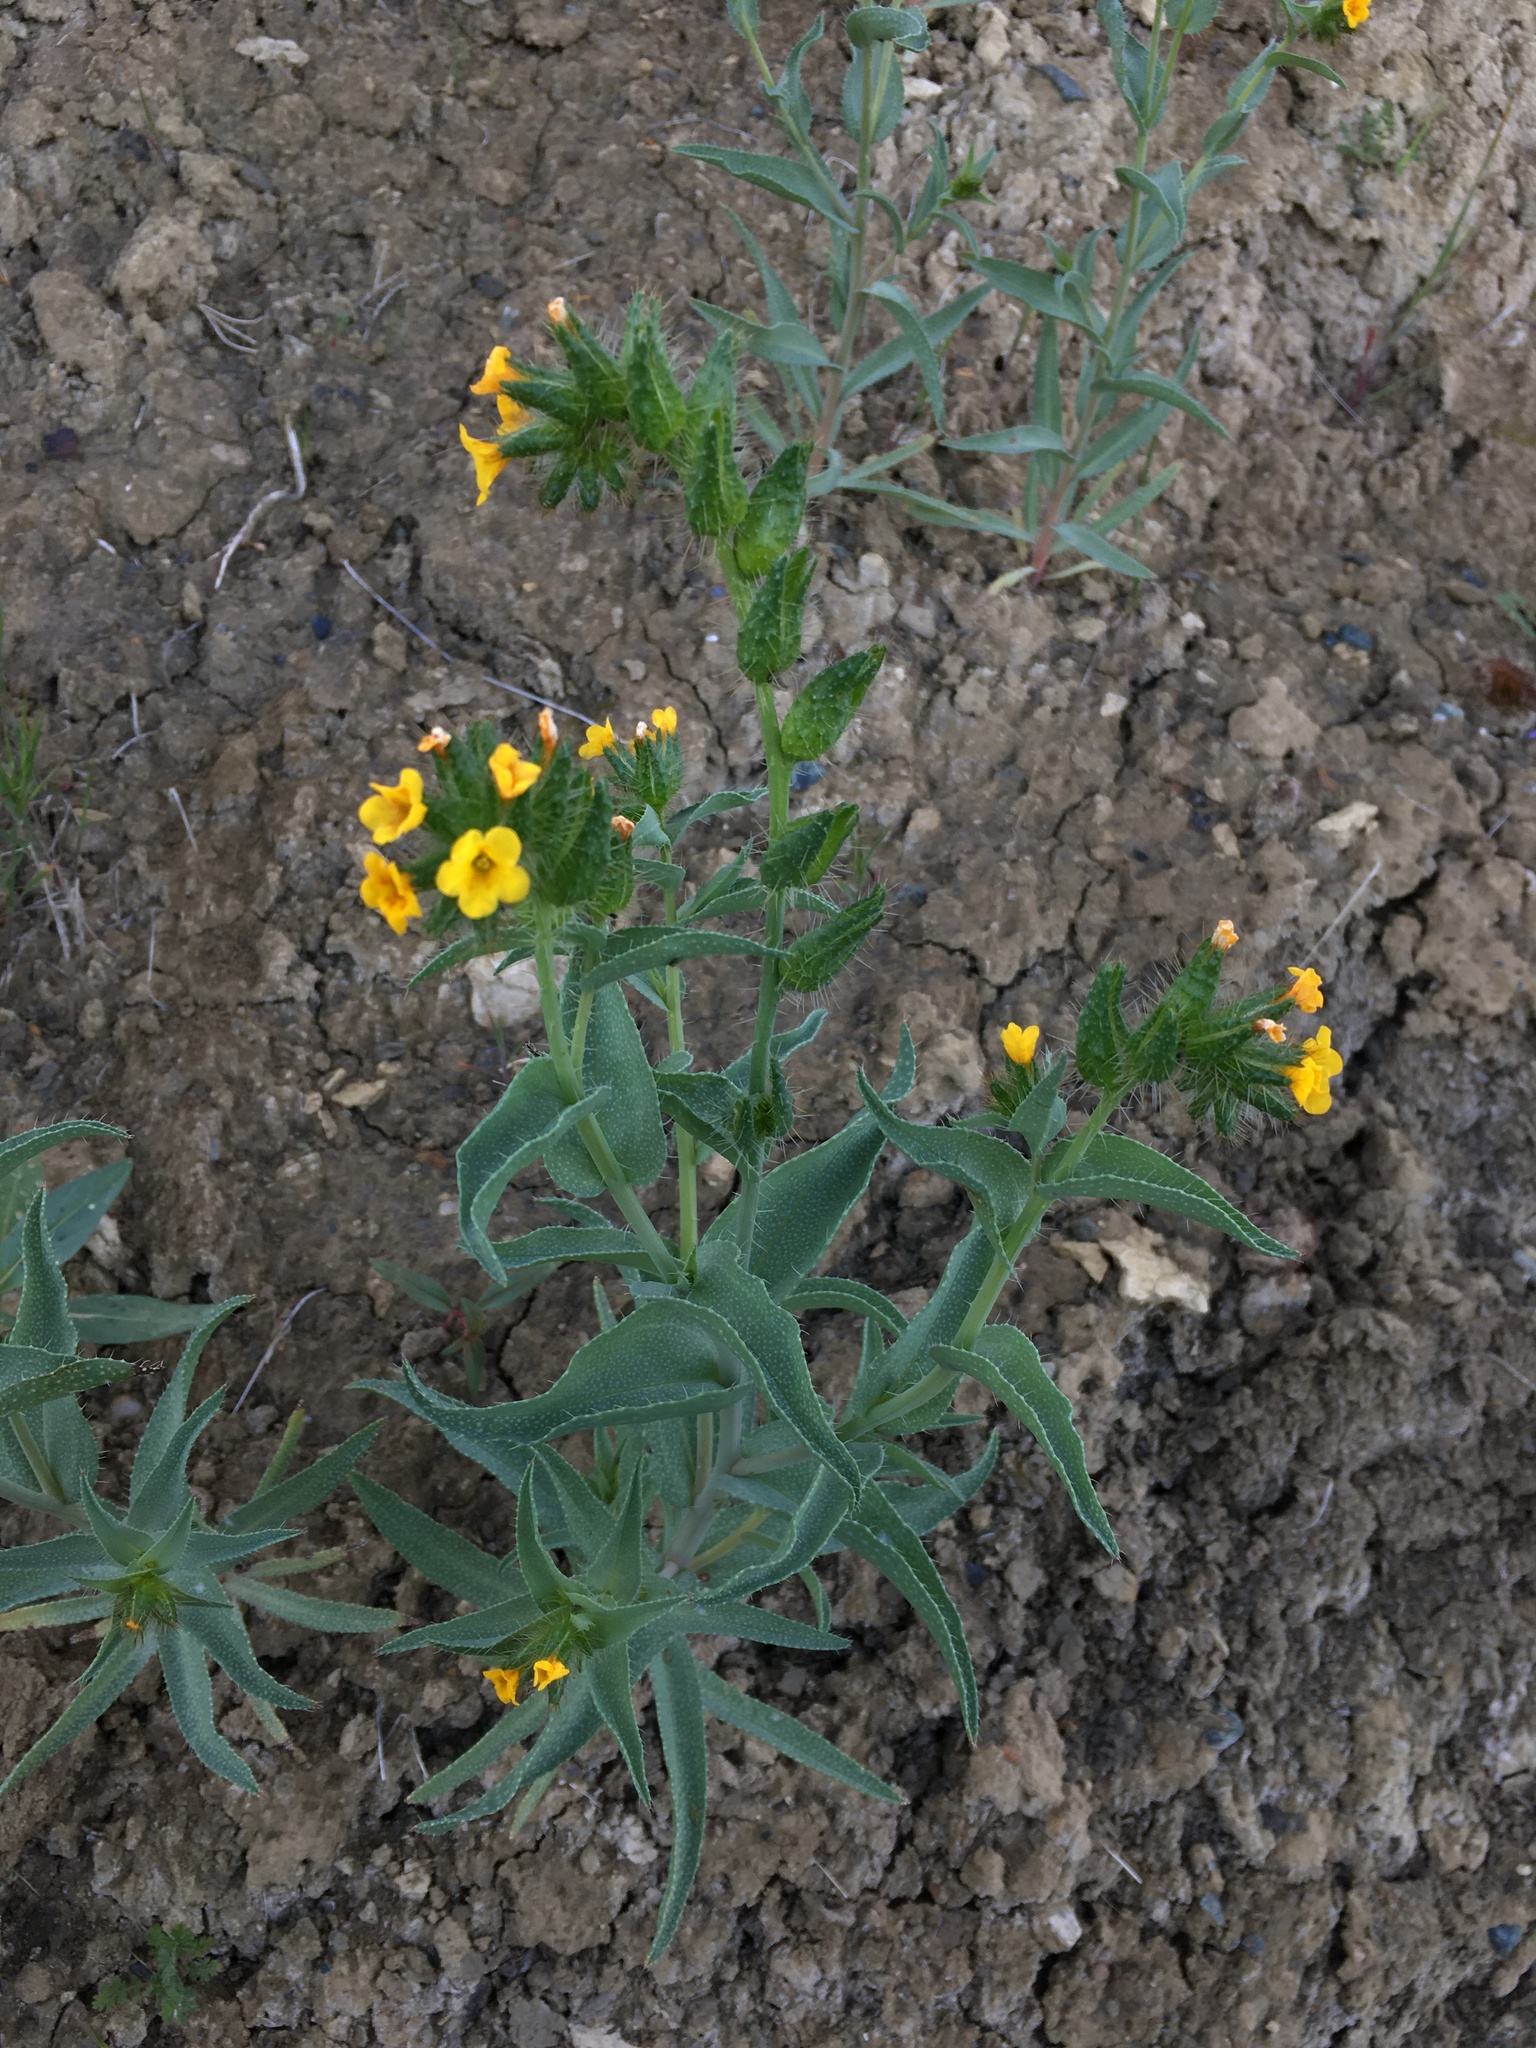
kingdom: Plantae
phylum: Tracheophyta
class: Magnoliopsida
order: Boraginales
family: Boraginaceae
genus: Amsinckia
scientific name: Amsinckia vernicosa
